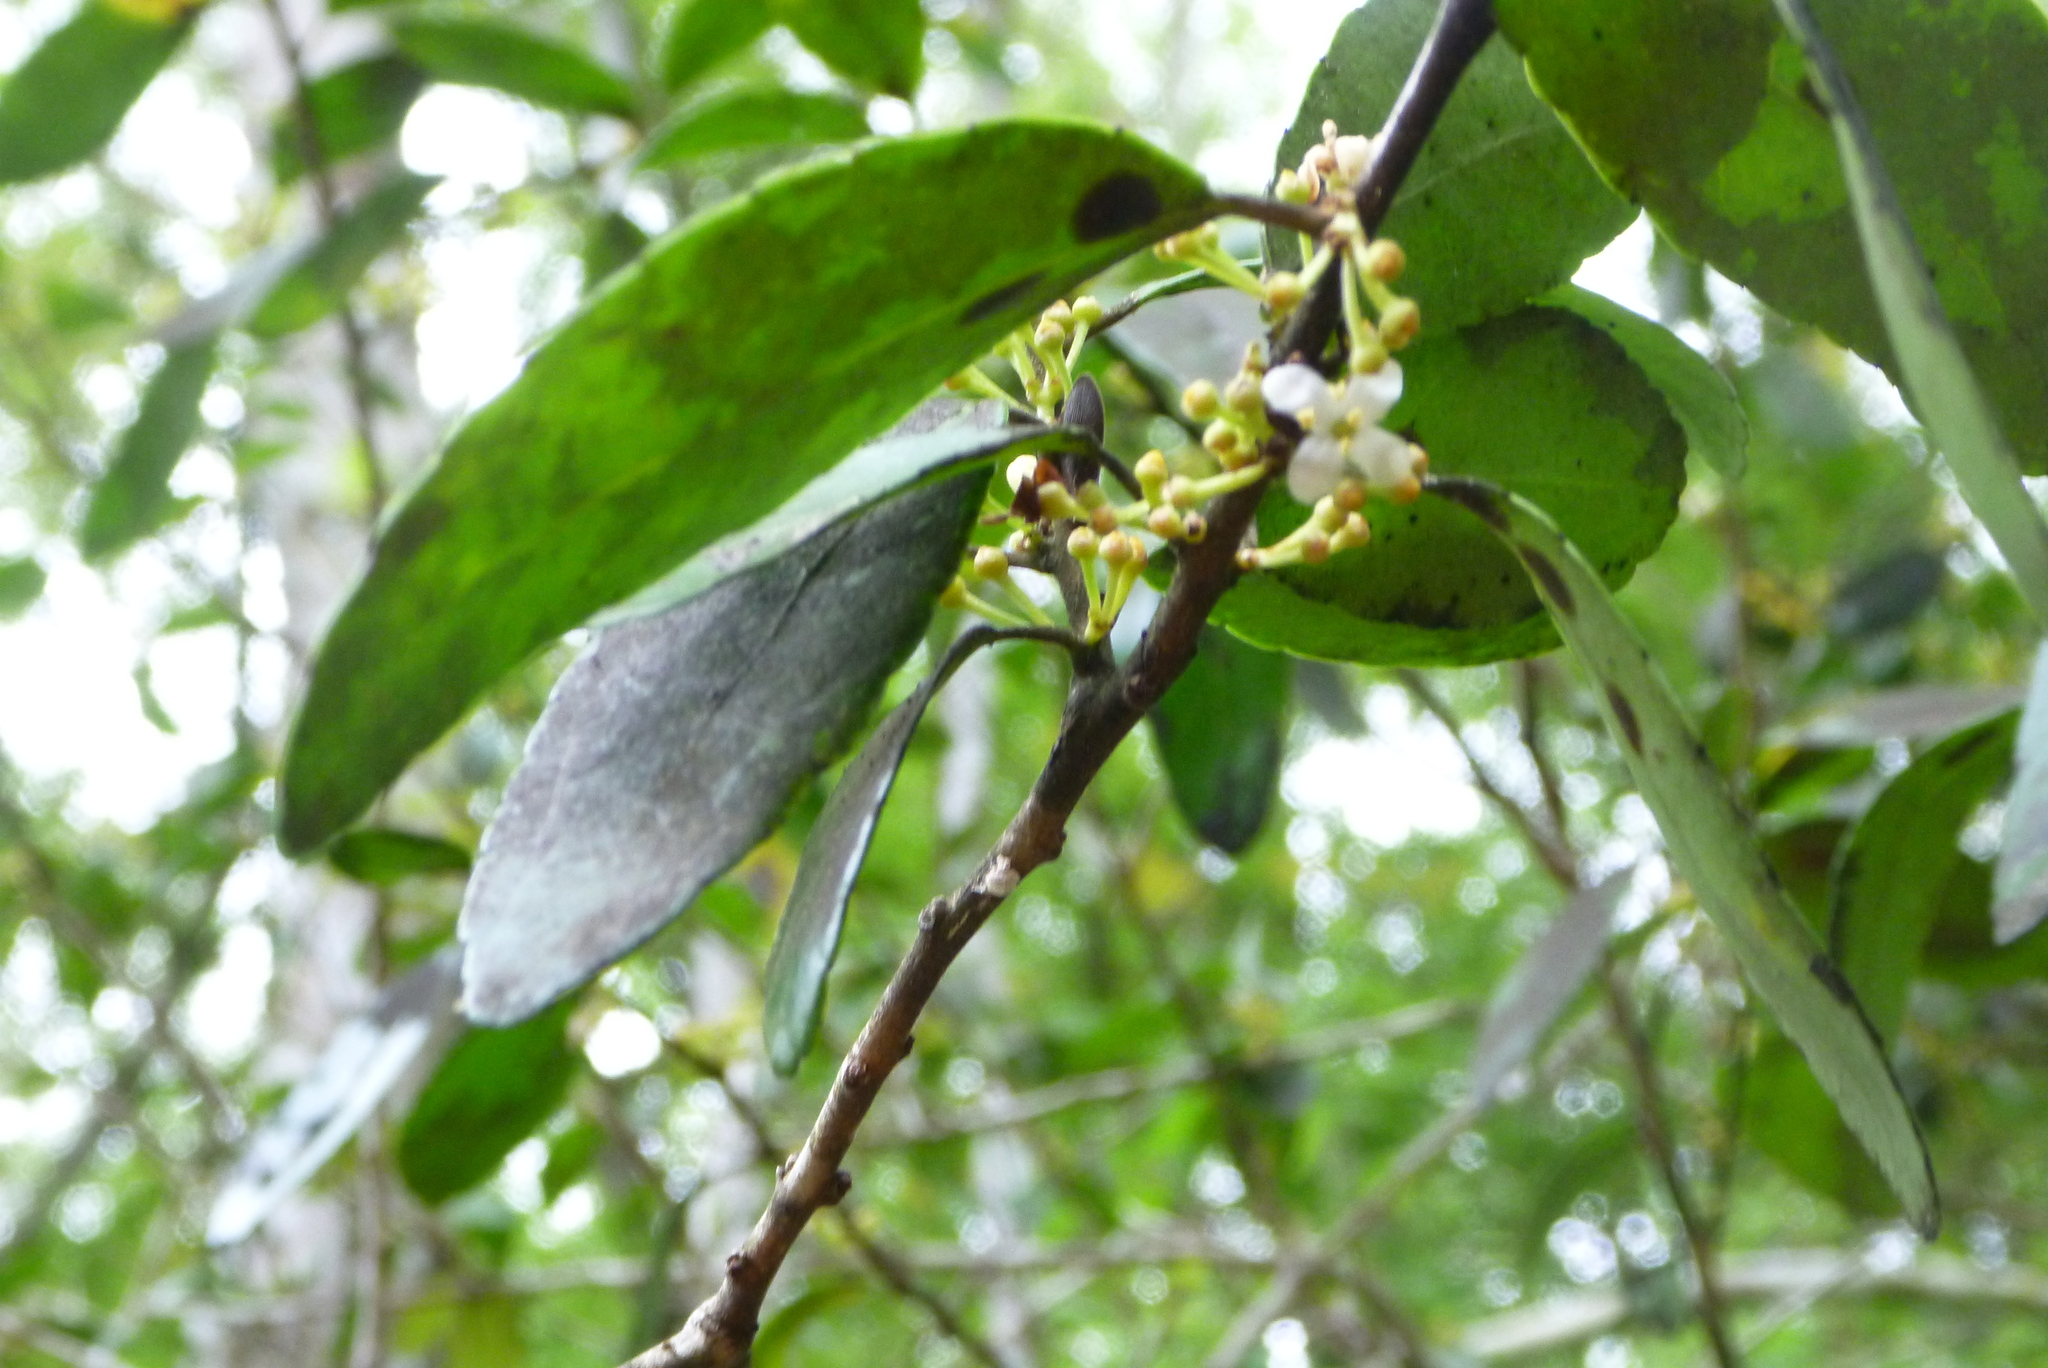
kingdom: Plantae
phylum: Tracheophyta
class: Magnoliopsida
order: Aquifoliales
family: Aquifoliaceae
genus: Ilex
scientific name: Ilex vomitoria
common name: Yaupon holly
